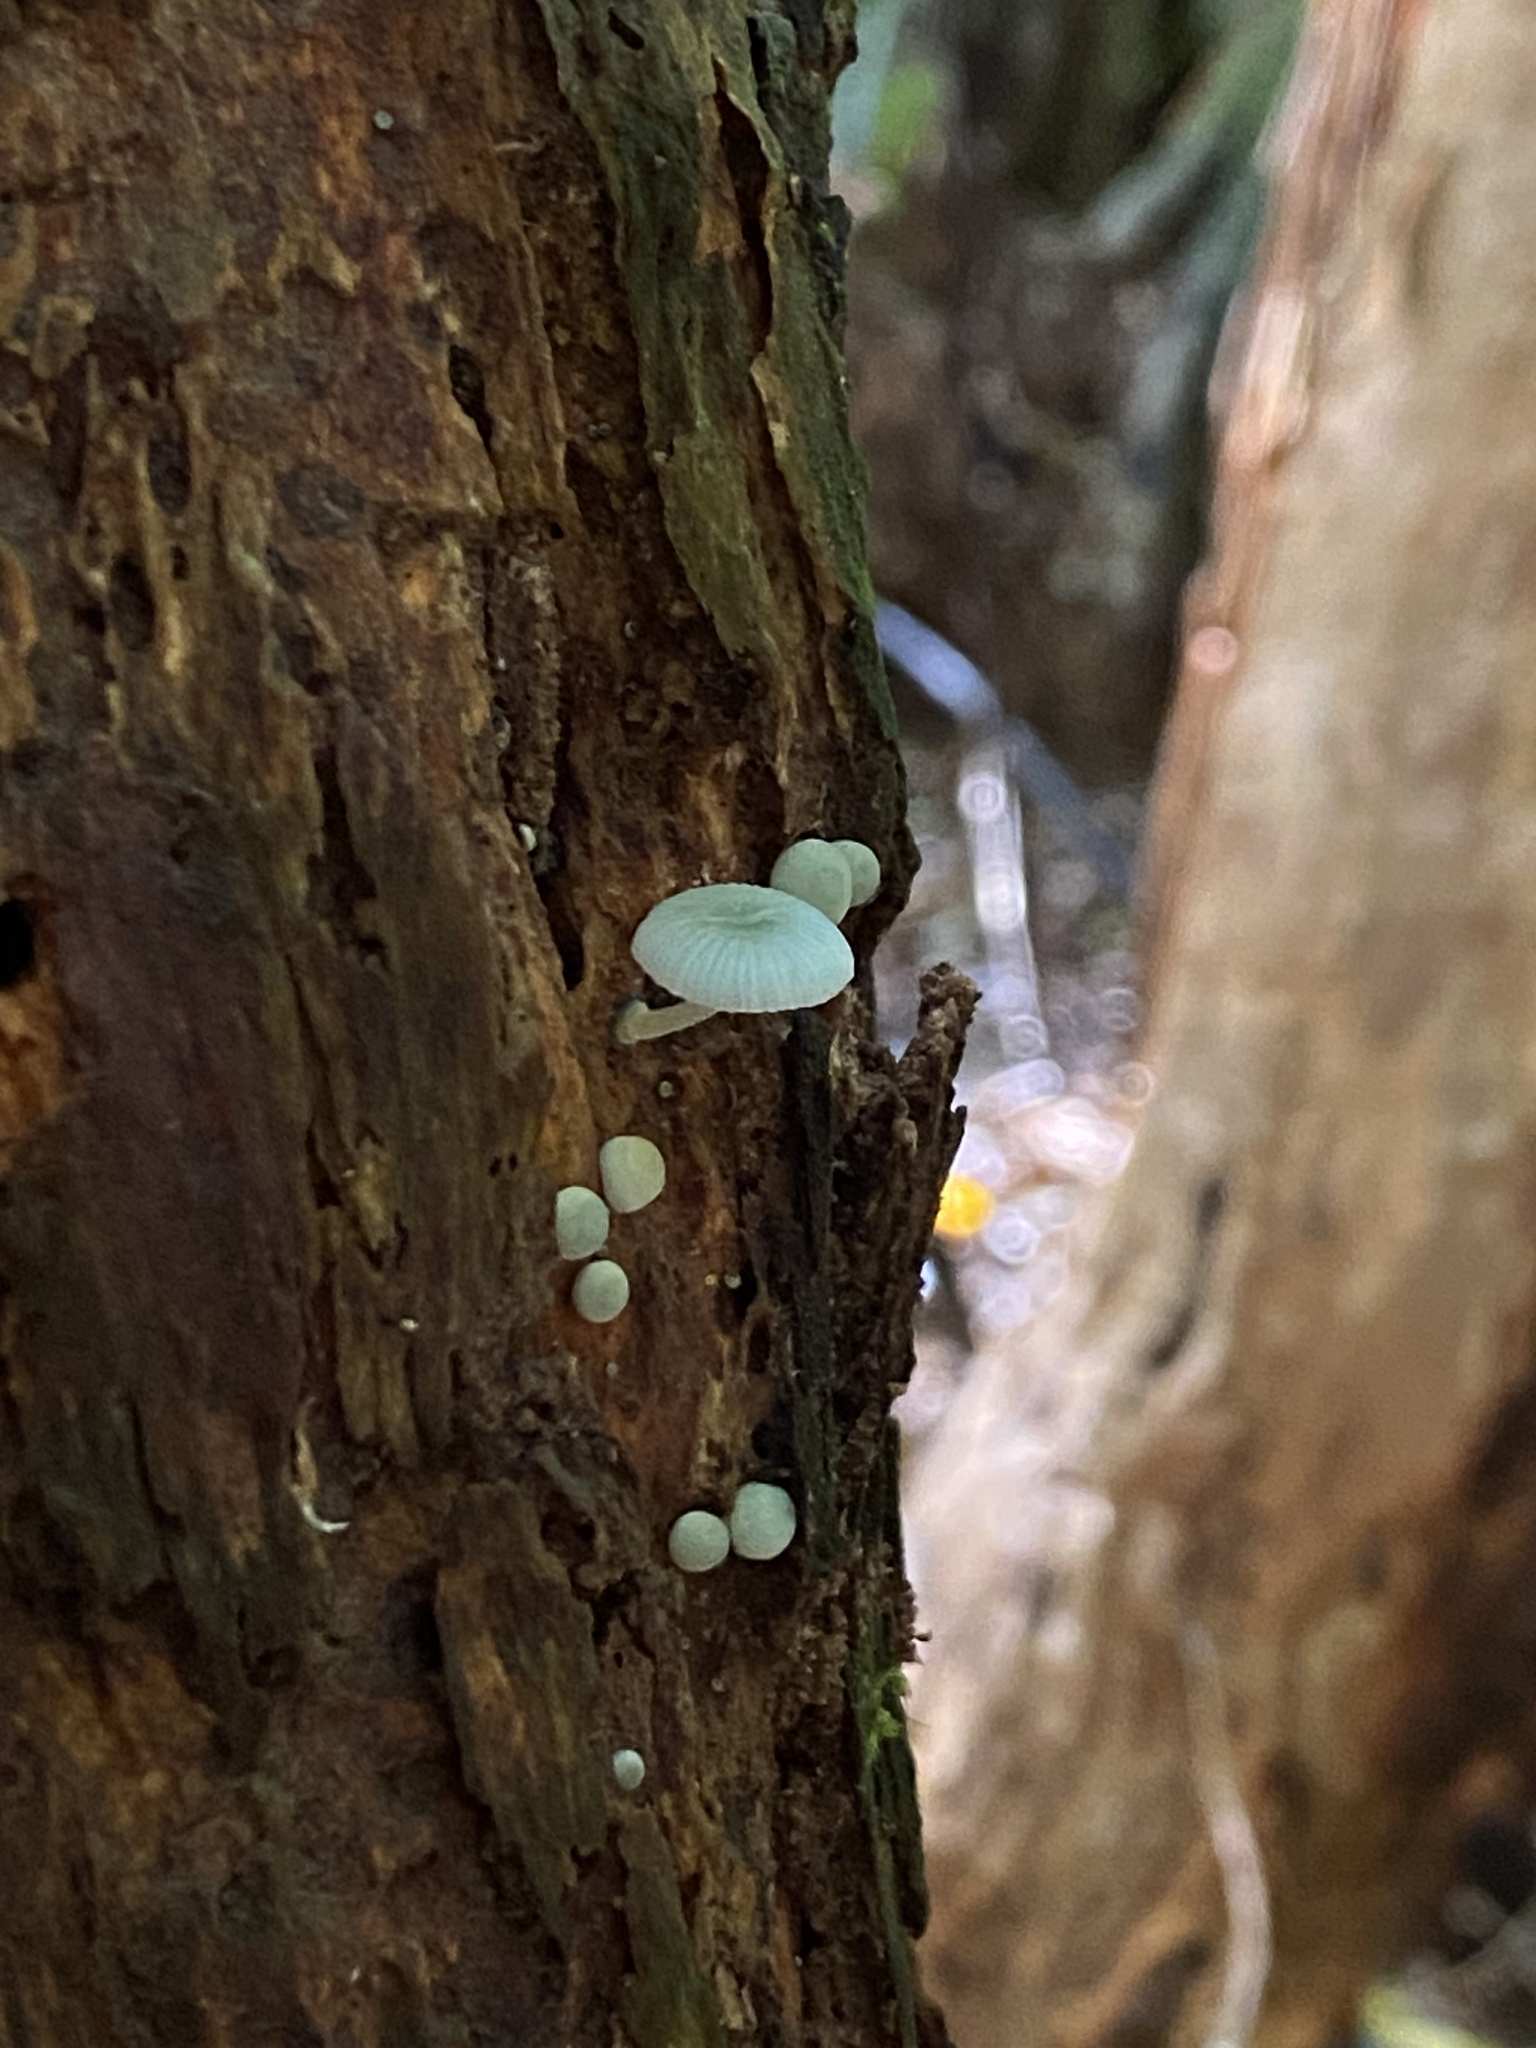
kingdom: Fungi
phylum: Basidiomycota
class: Agaricomycetes
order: Agaricales
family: Mycenaceae
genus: Mycena
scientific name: Mycena interrupta
